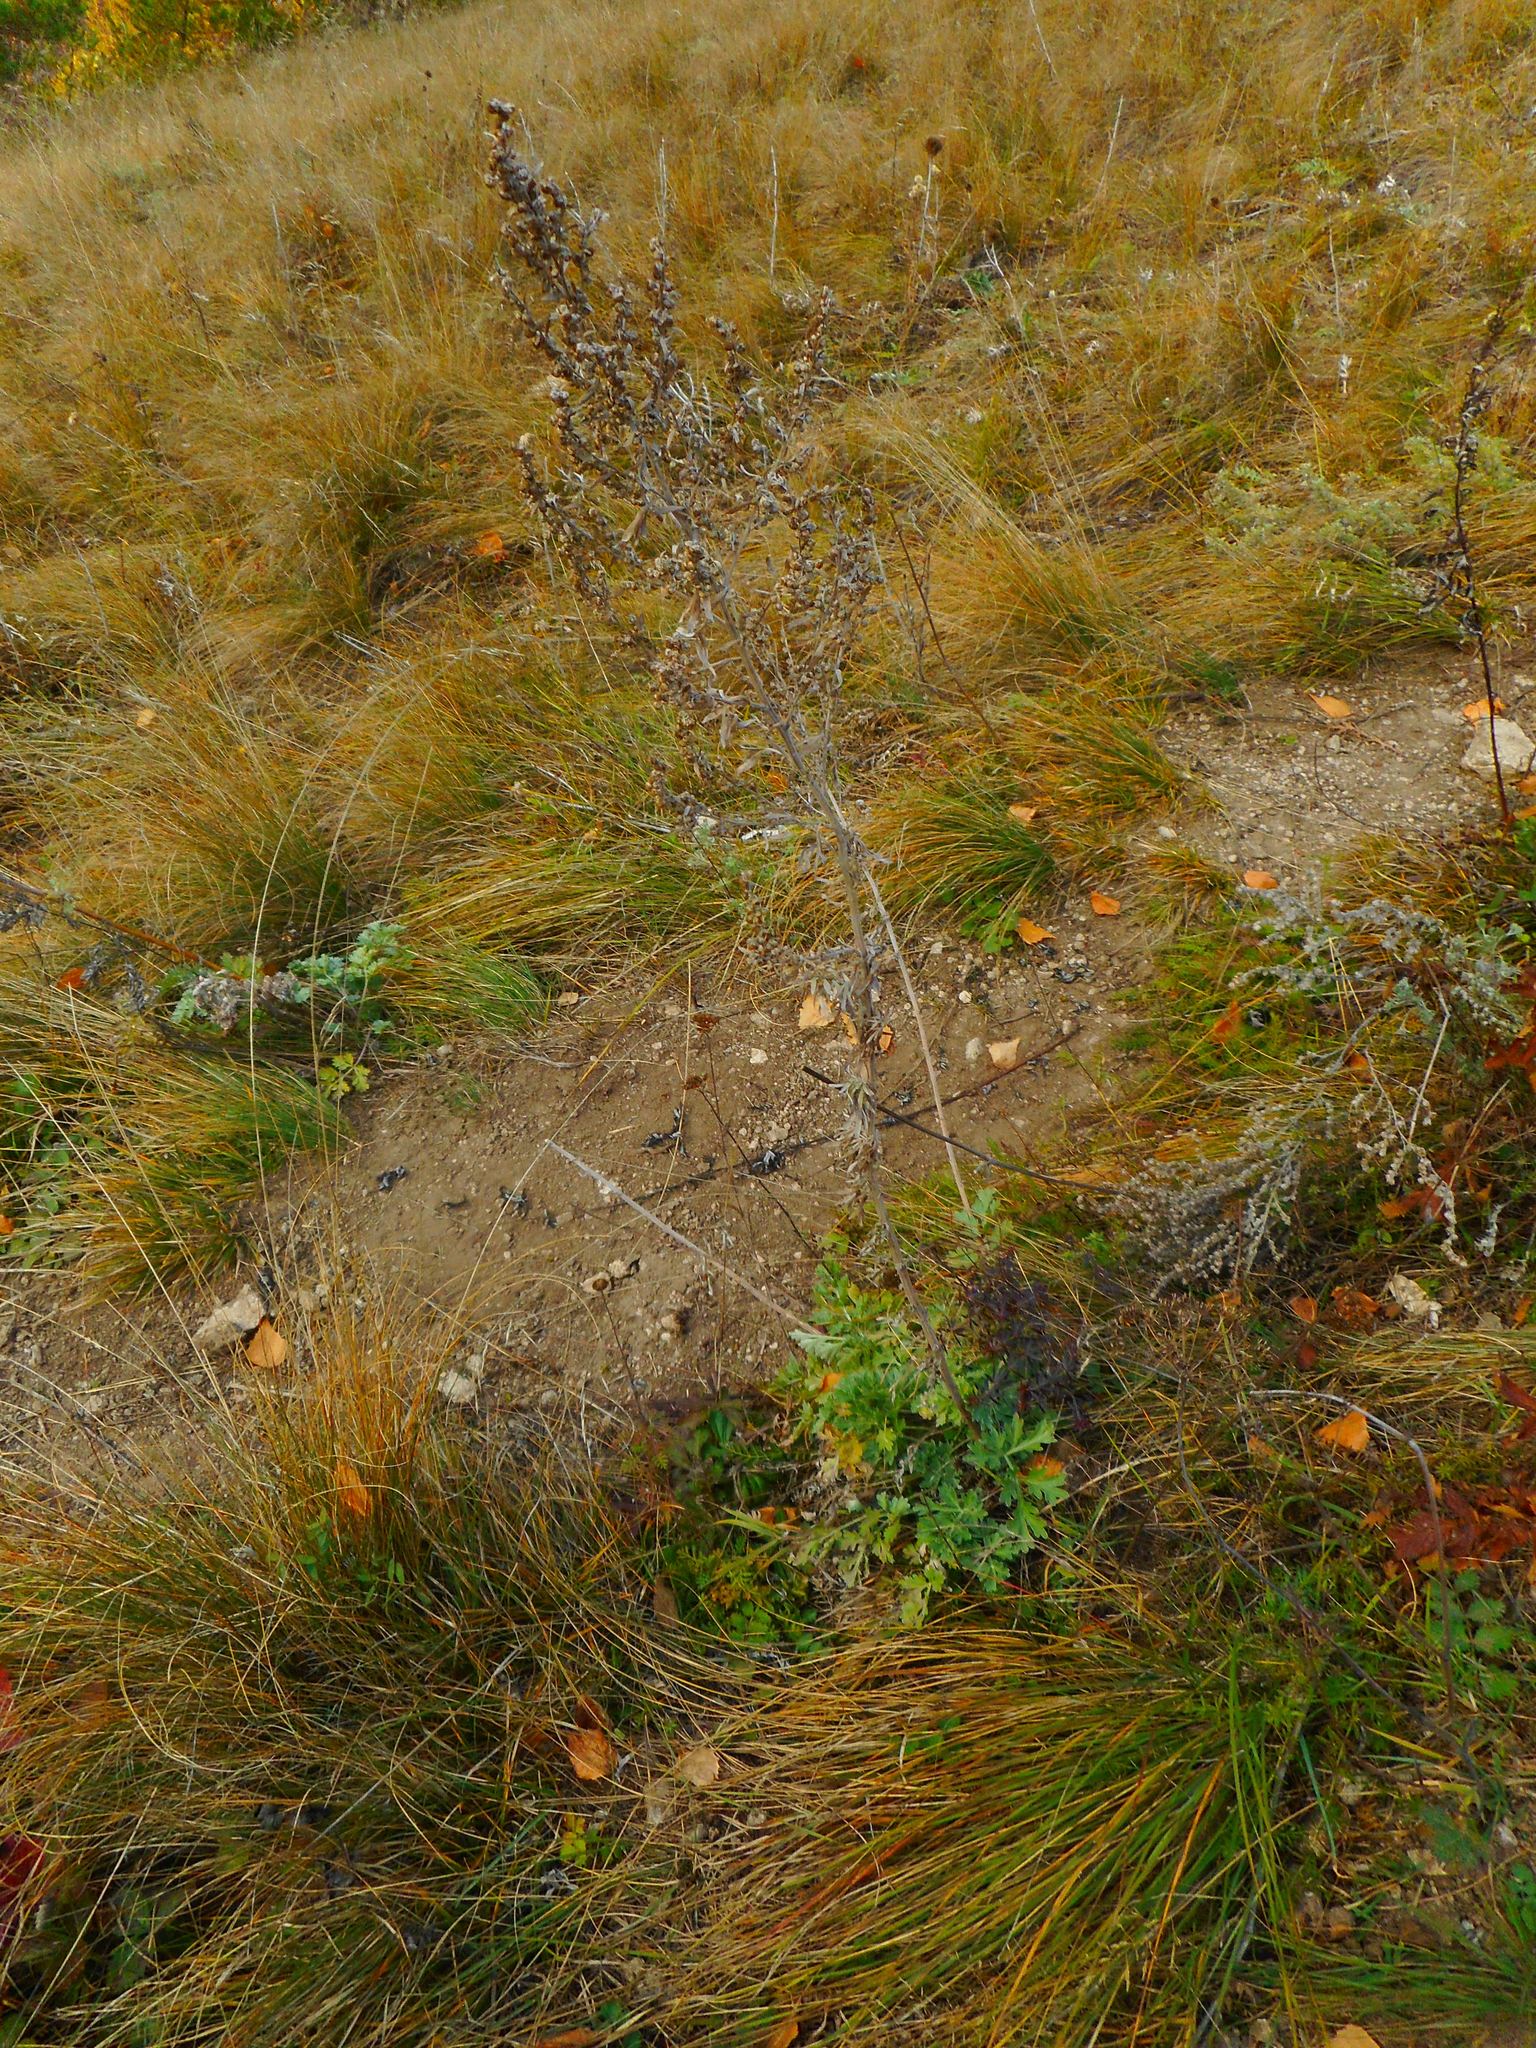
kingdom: Plantae
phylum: Tracheophyta
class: Magnoliopsida
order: Asterales
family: Asteraceae
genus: Artemisia
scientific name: Artemisia absinthium
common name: Wormwood
